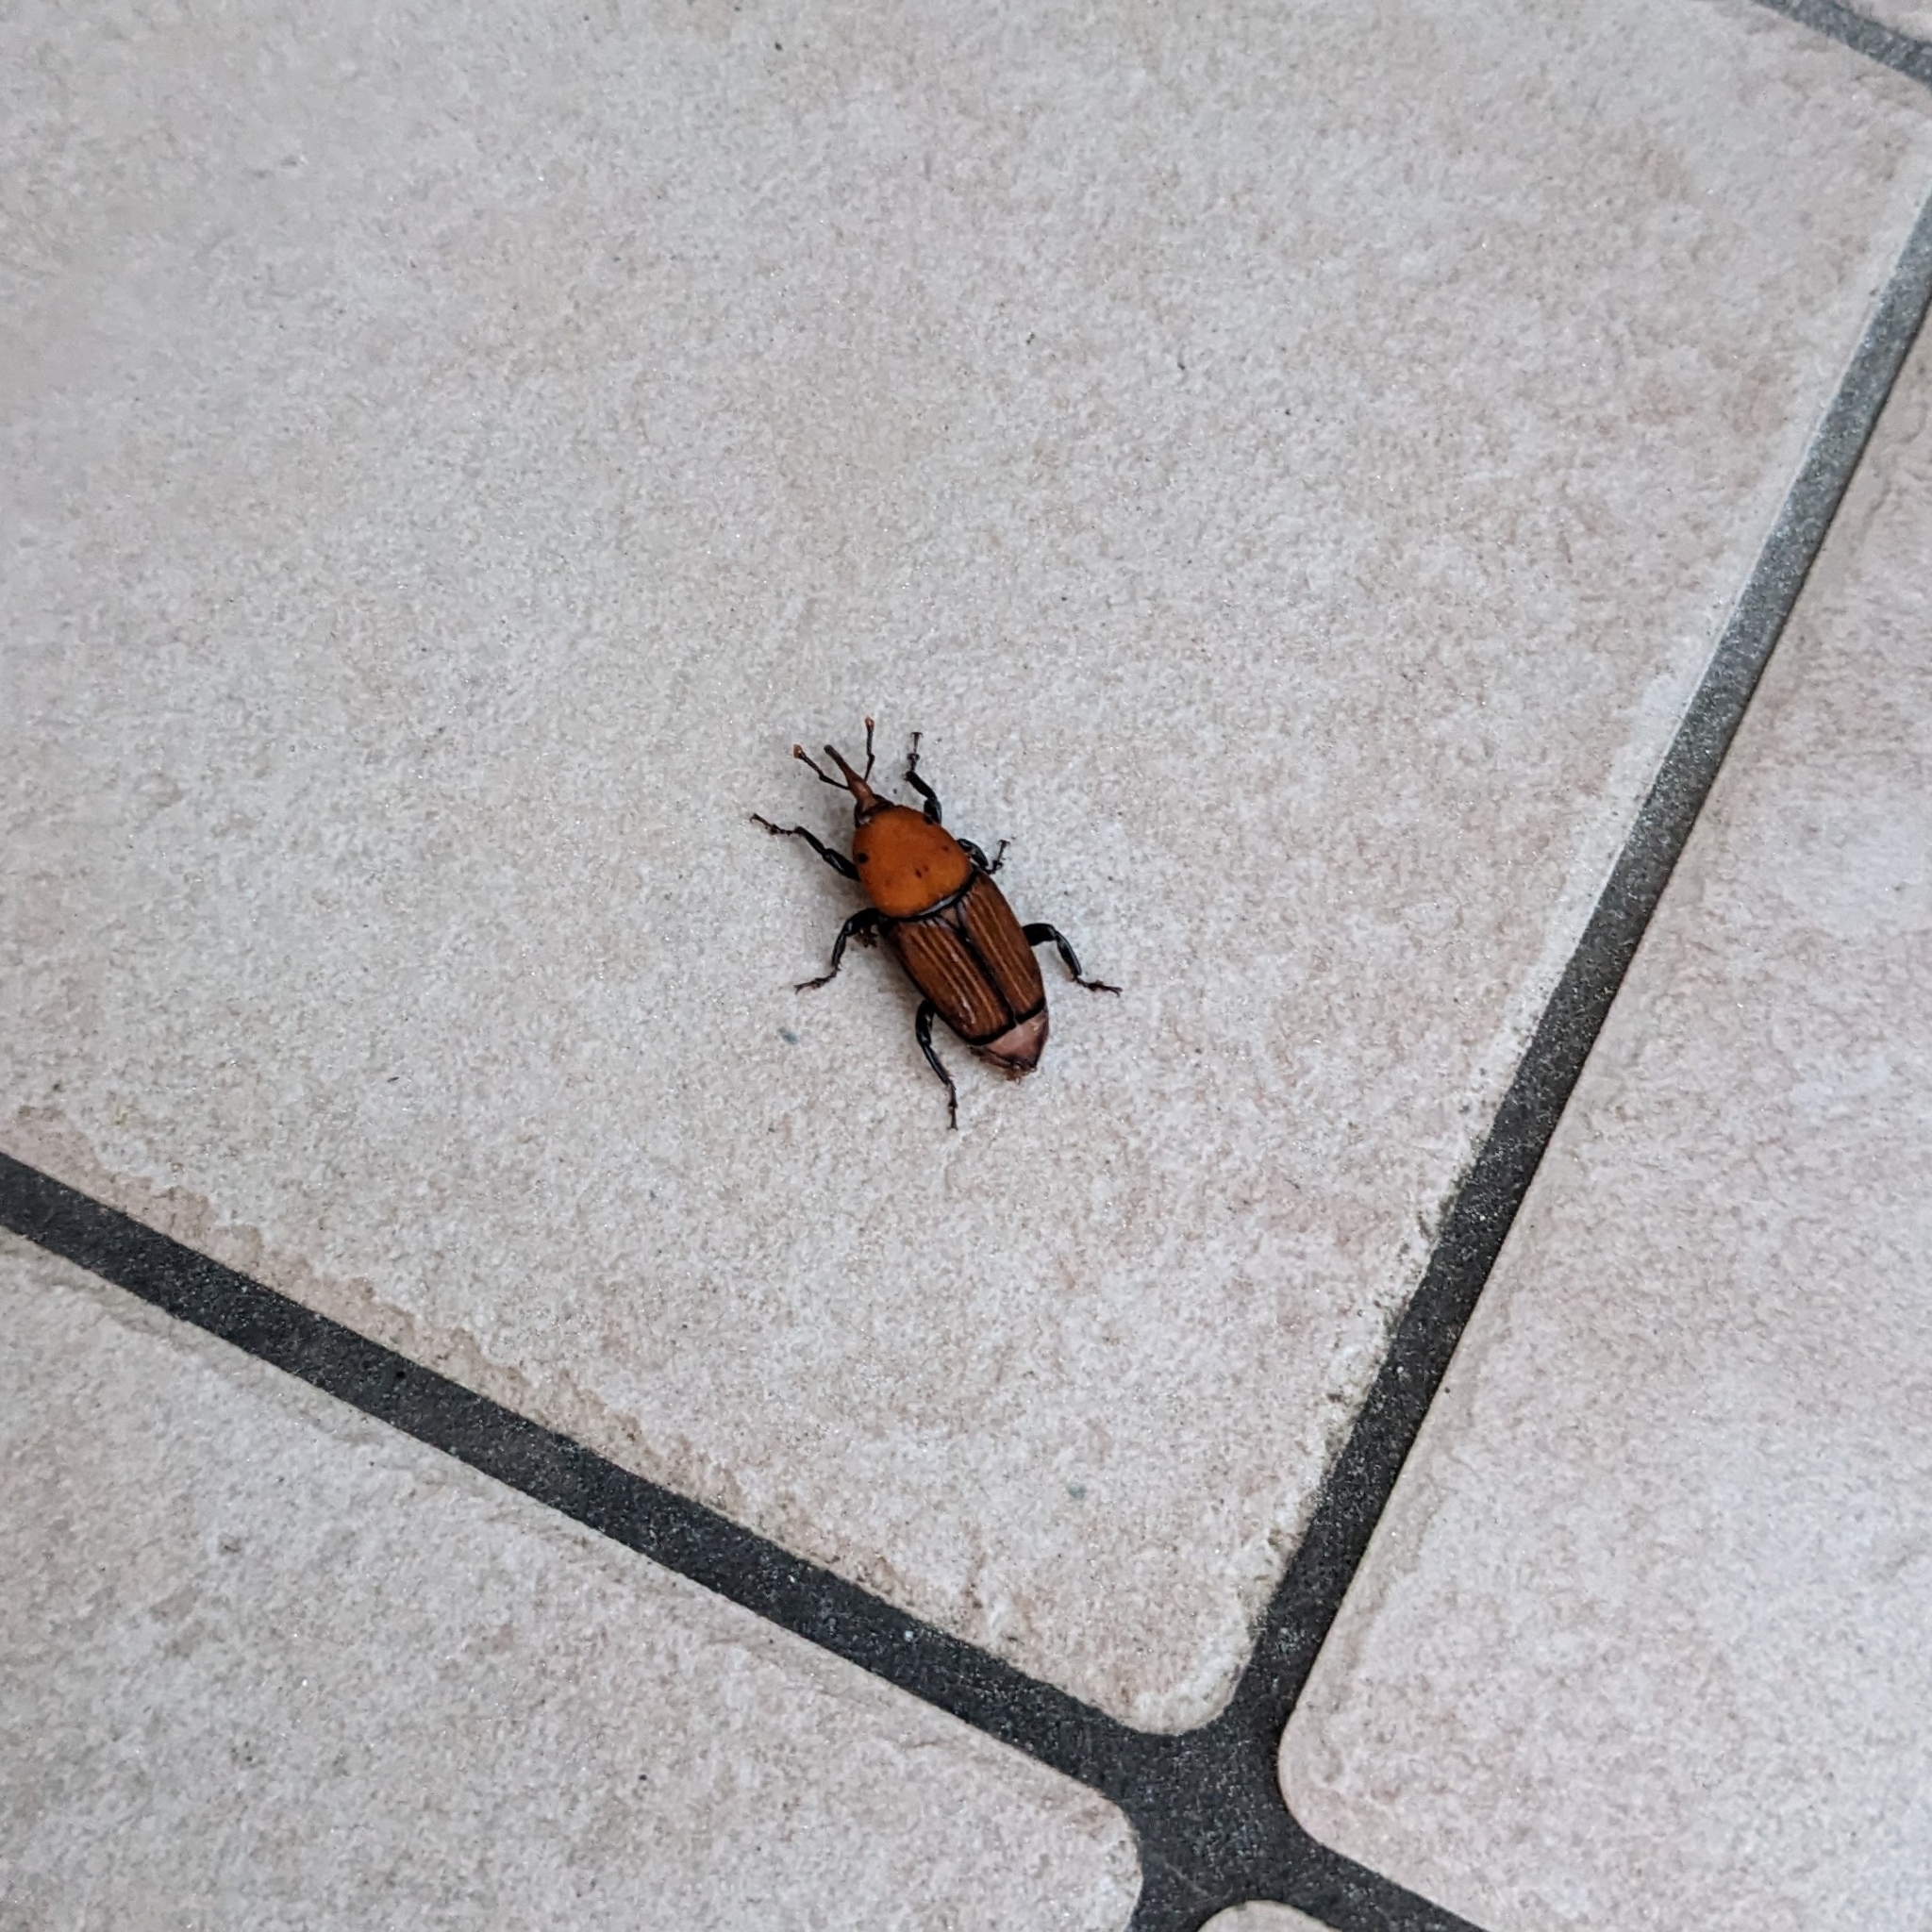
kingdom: Animalia
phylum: Arthropoda
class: Insecta
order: Coleoptera
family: Dryophthoridae
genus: Rhynchophorus
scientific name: Rhynchophorus ferrugineus
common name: Red palm weevil
